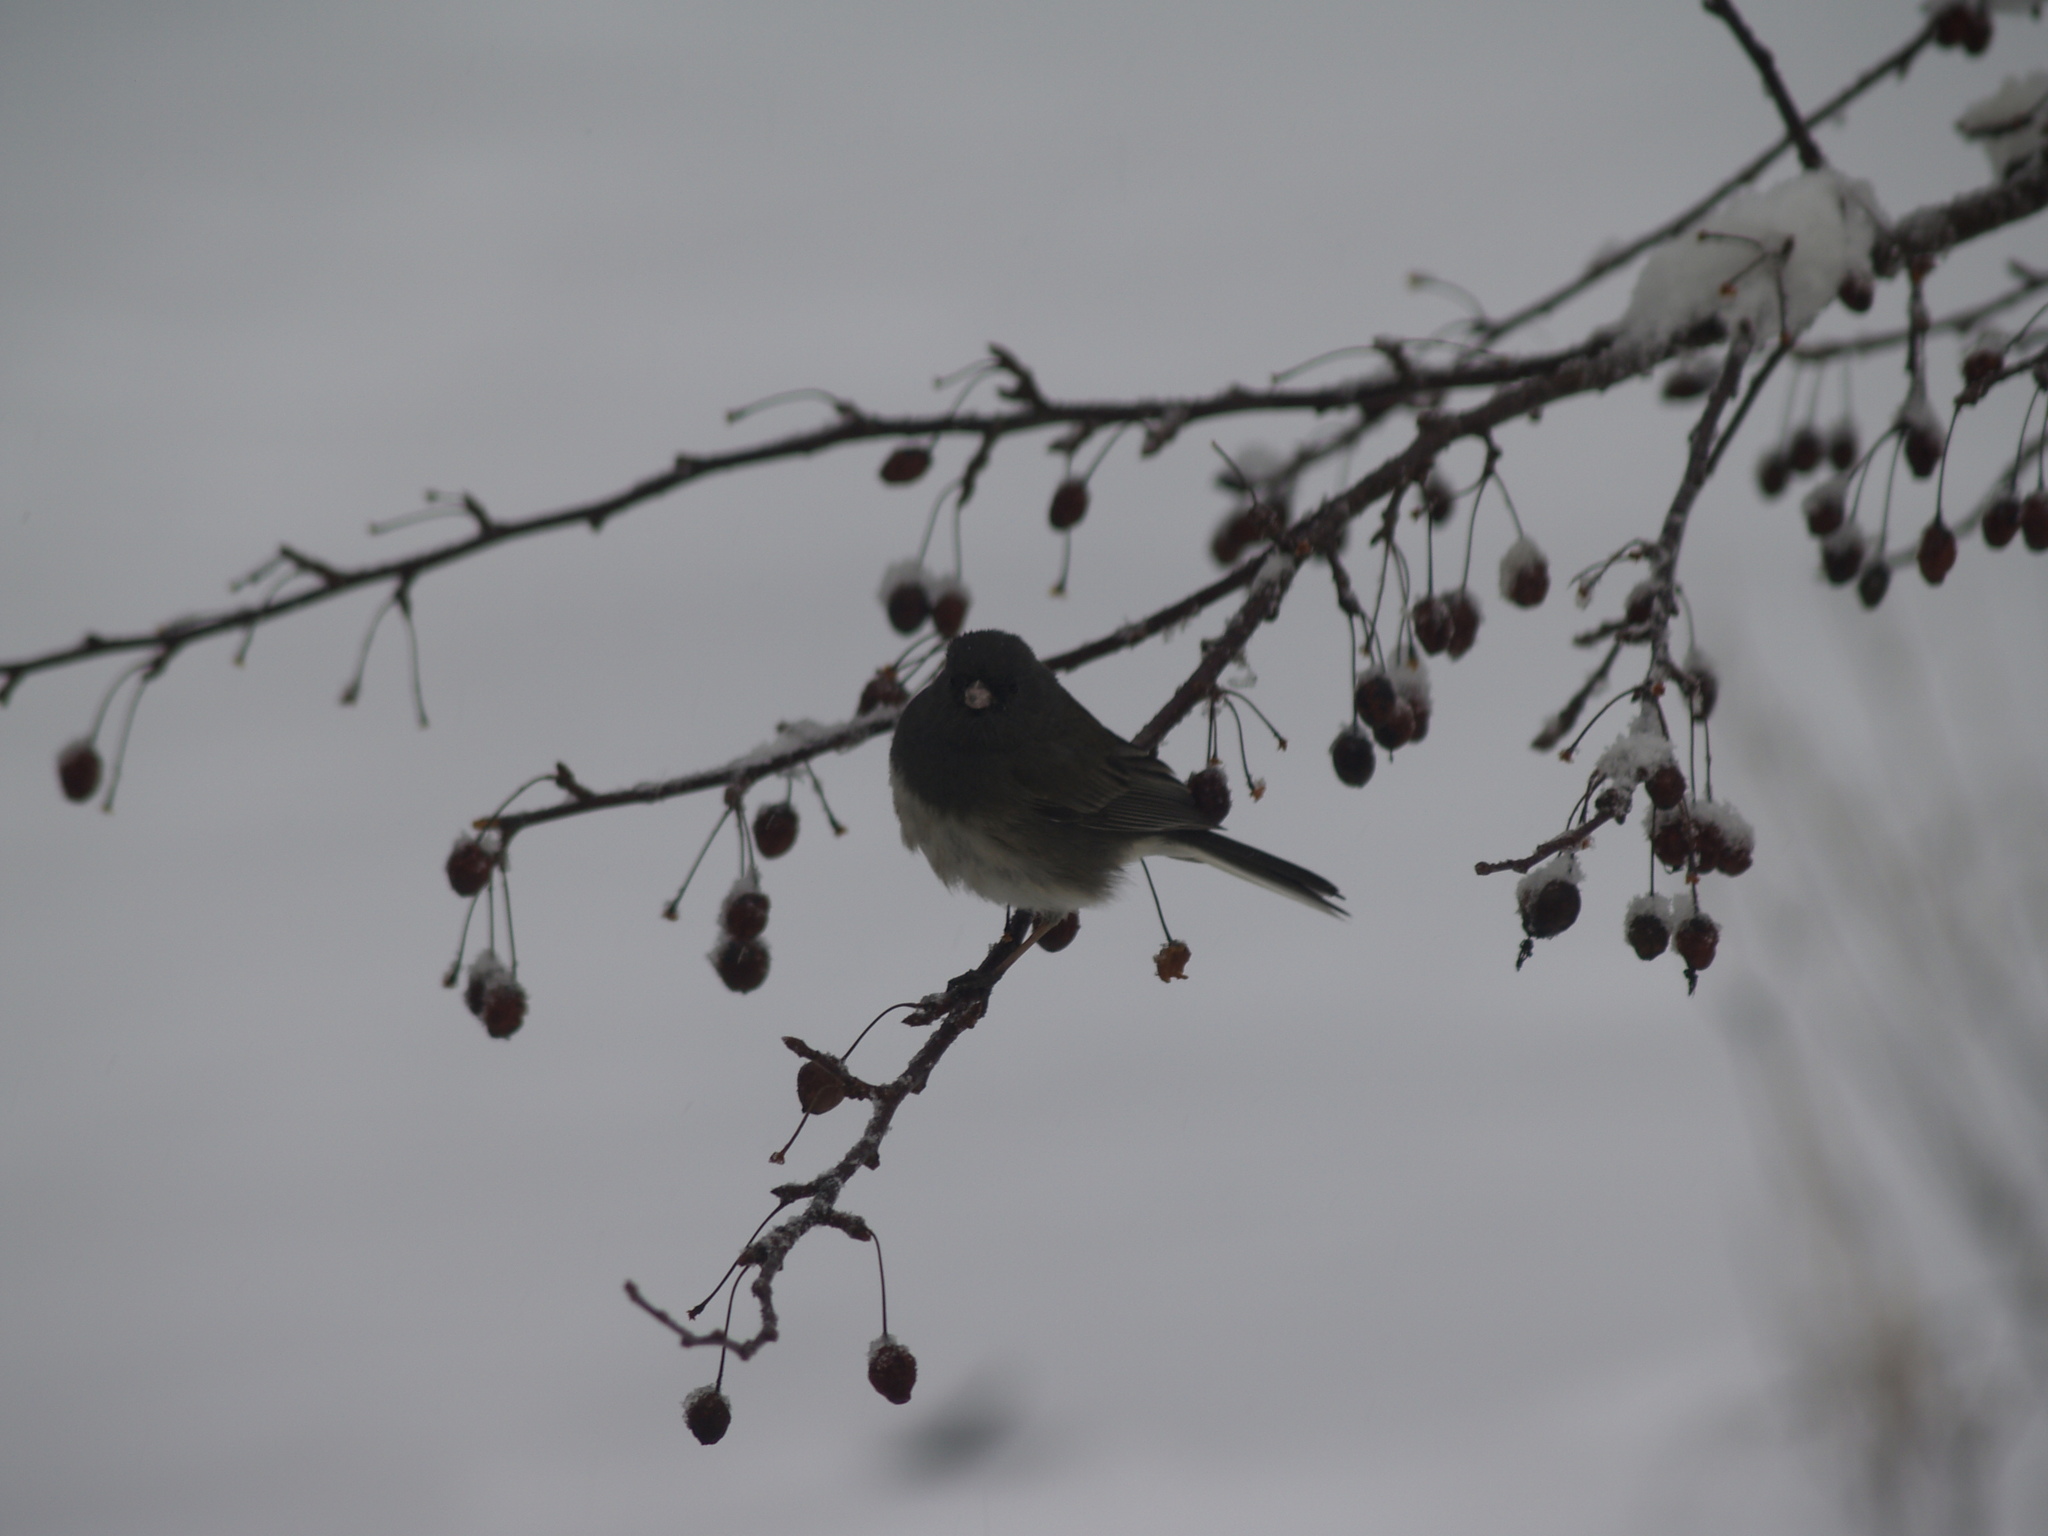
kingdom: Animalia
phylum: Chordata
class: Aves
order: Passeriformes
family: Passerellidae
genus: Junco
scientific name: Junco hyemalis
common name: Dark-eyed junco
